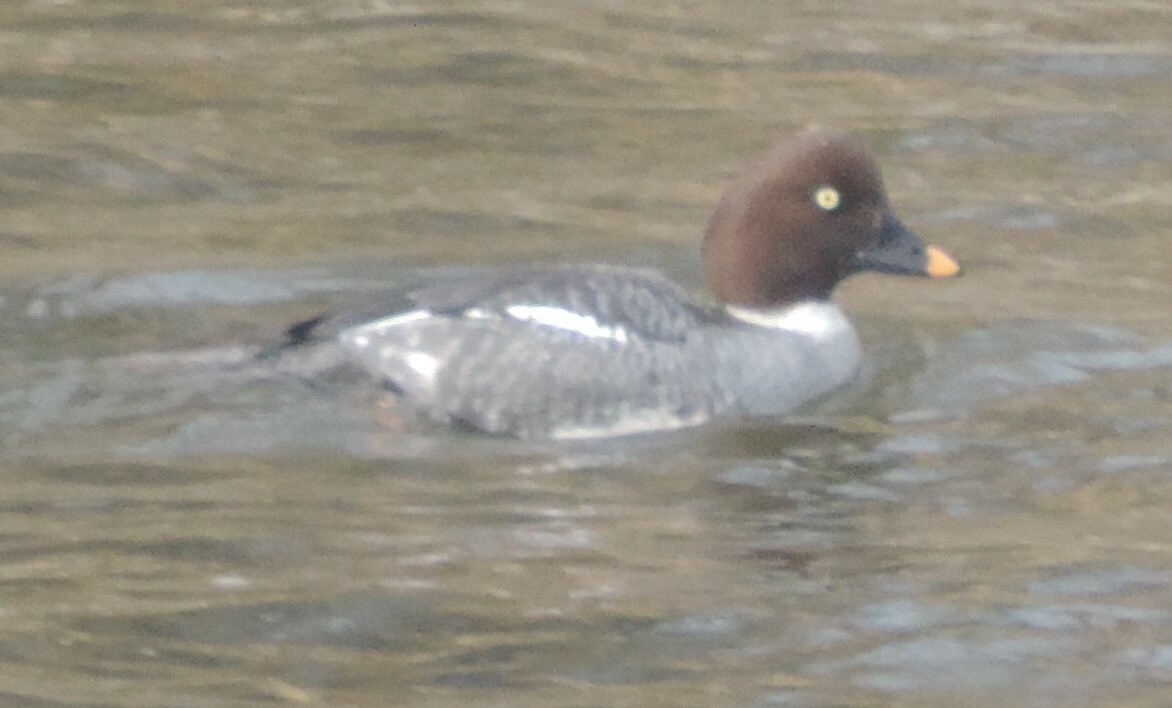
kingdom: Animalia
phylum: Chordata
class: Aves
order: Anseriformes
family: Anatidae
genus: Bucephala
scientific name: Bucephala clangula
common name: Common goldeneye
